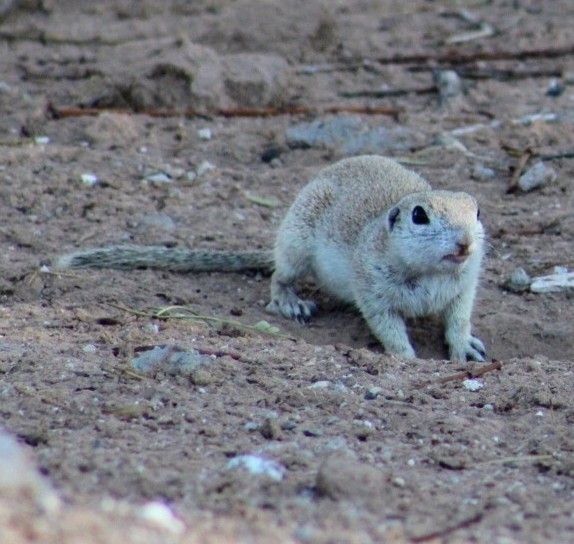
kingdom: Animalia
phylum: Chordata
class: Mammalia
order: Rodentia
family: Sciuridae
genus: Xerospermophilus
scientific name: Xerospermophilus tereticaudus
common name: Round-tailed ground squirrel
